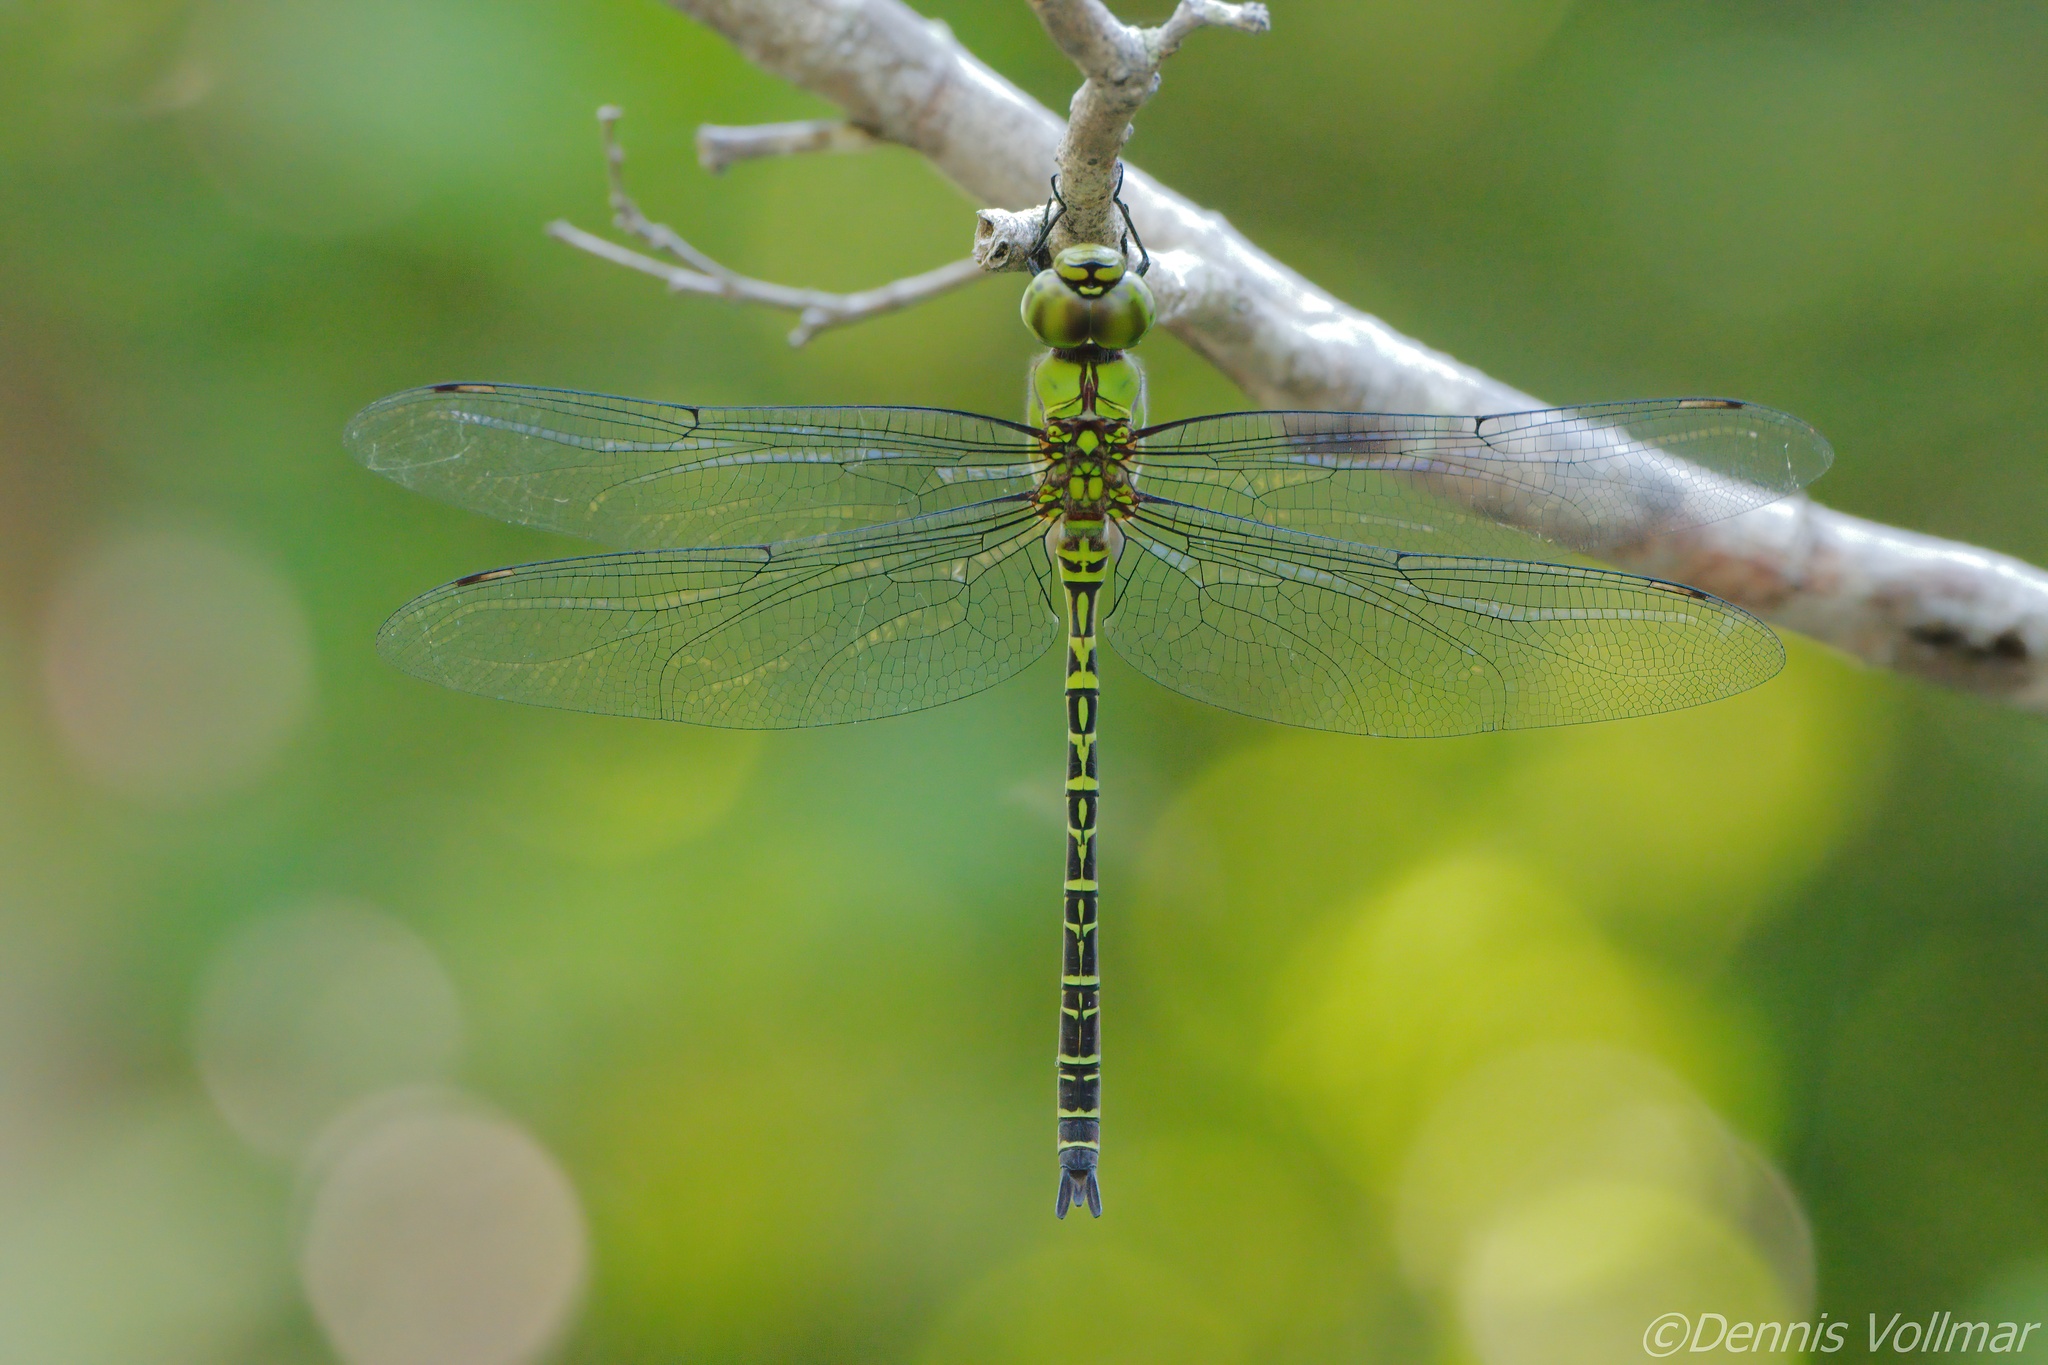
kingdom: Animalia
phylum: Arthropoda
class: Insecta
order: Odonata
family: Aeshnidae
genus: Coryphaeschna
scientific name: Coryphaeschna viriditas
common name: Mangrove darner
